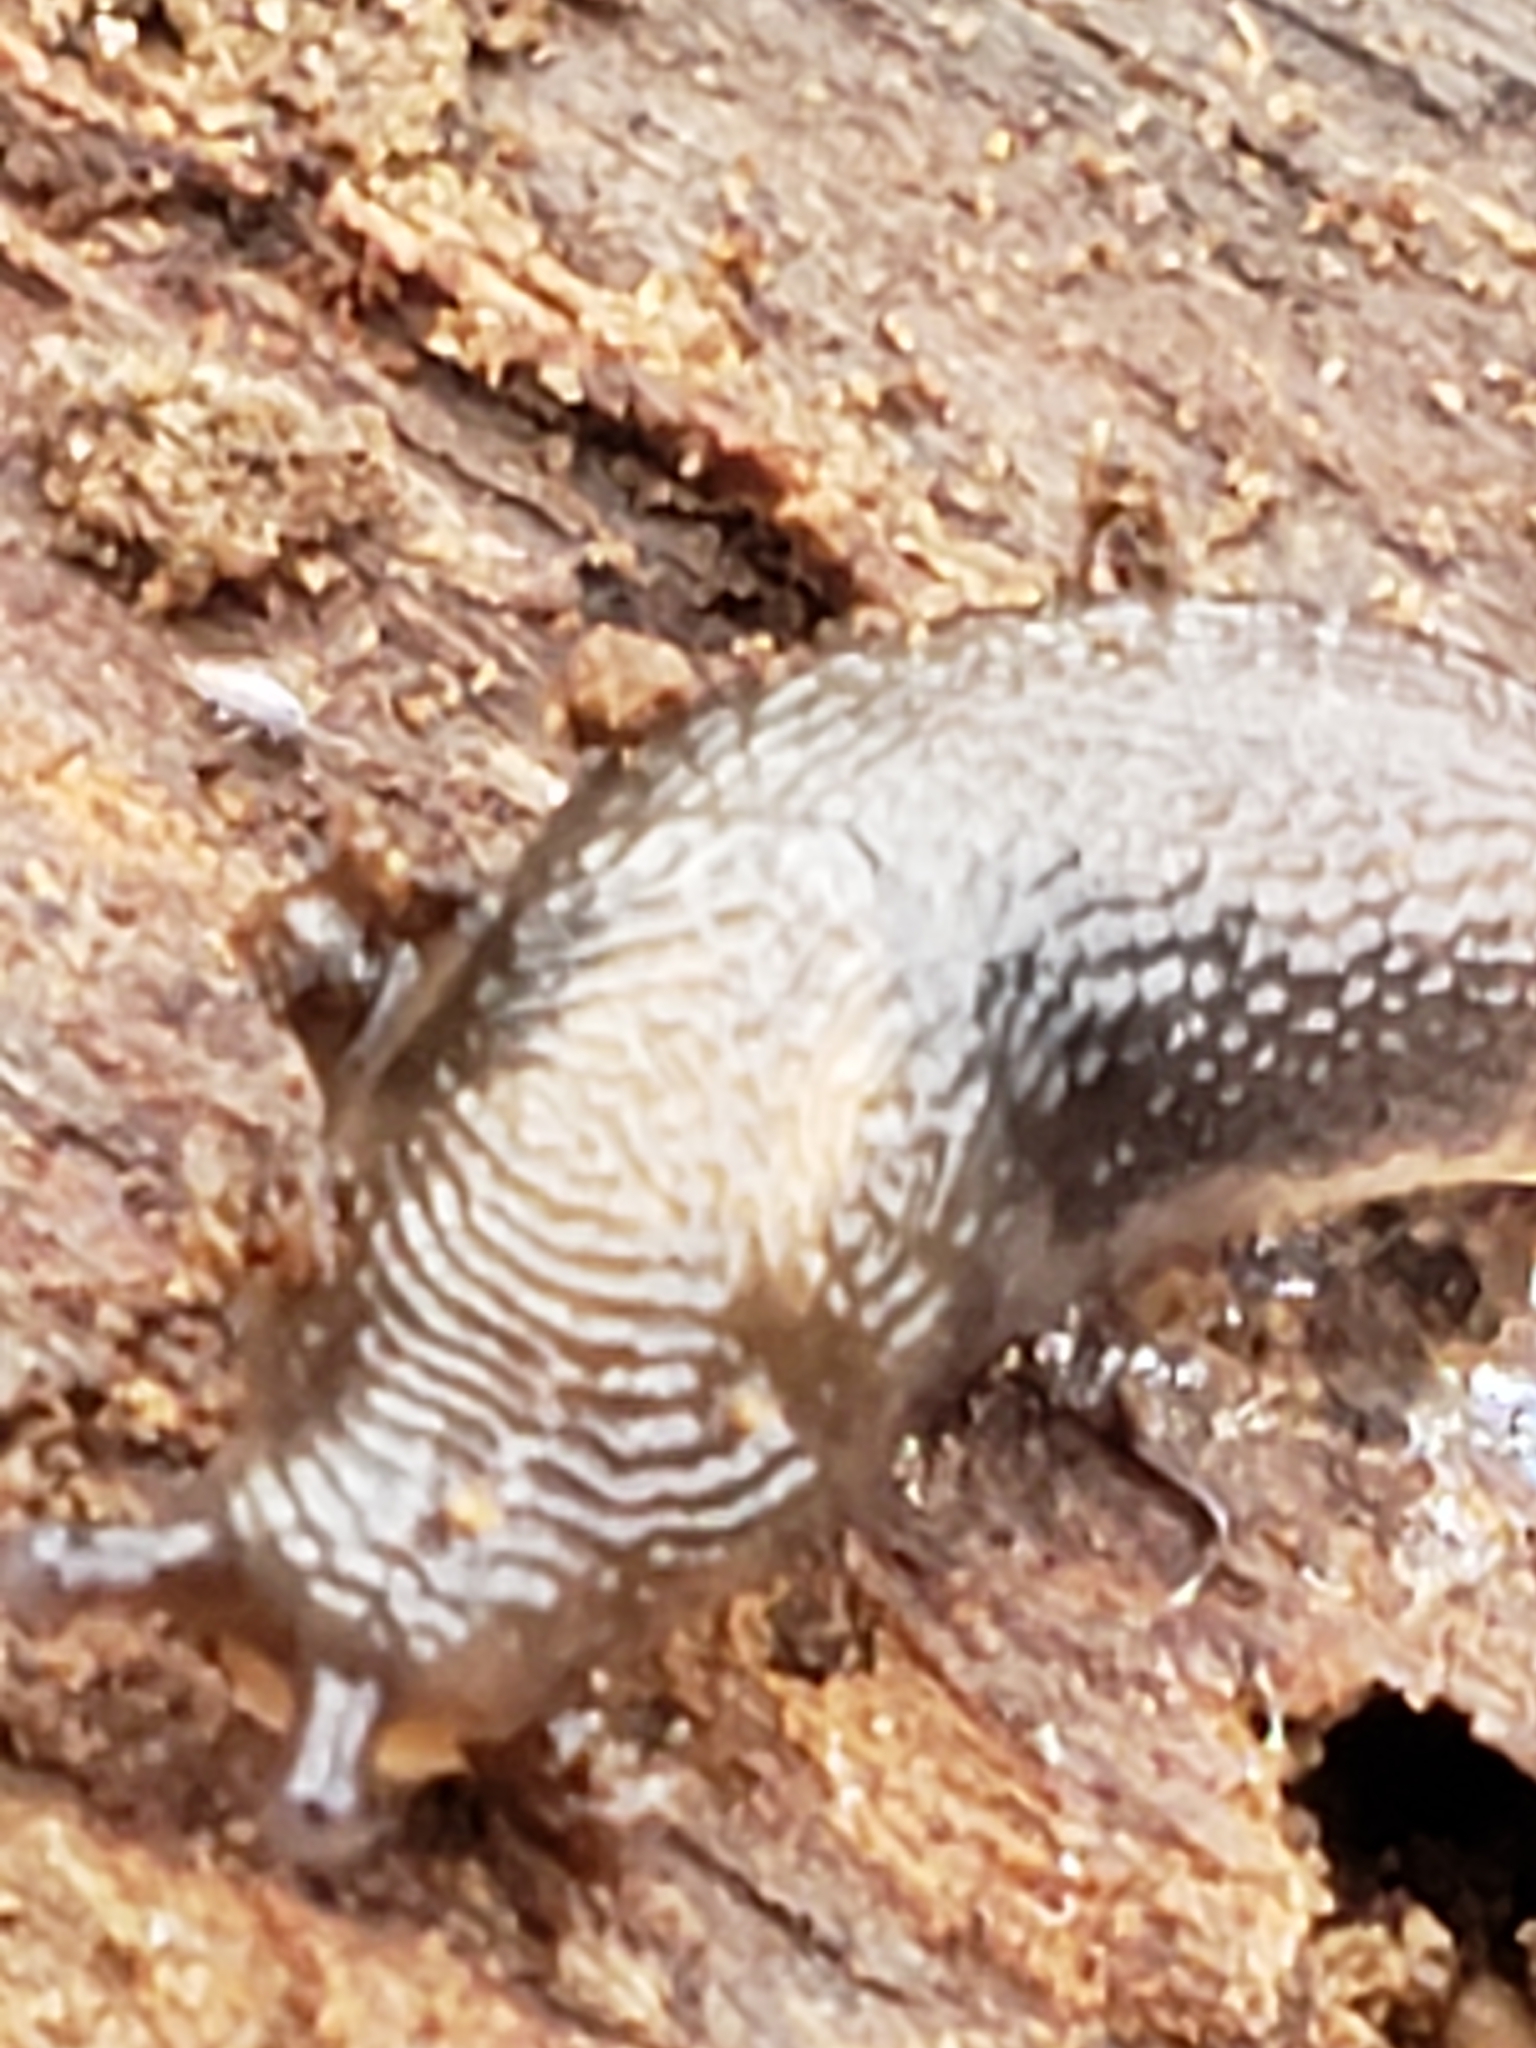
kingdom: Animalia
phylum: Mollusca
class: Gastropoda
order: Stylommatophora
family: Limacidae
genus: Limax
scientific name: Limax maximus
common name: Great grey slug
